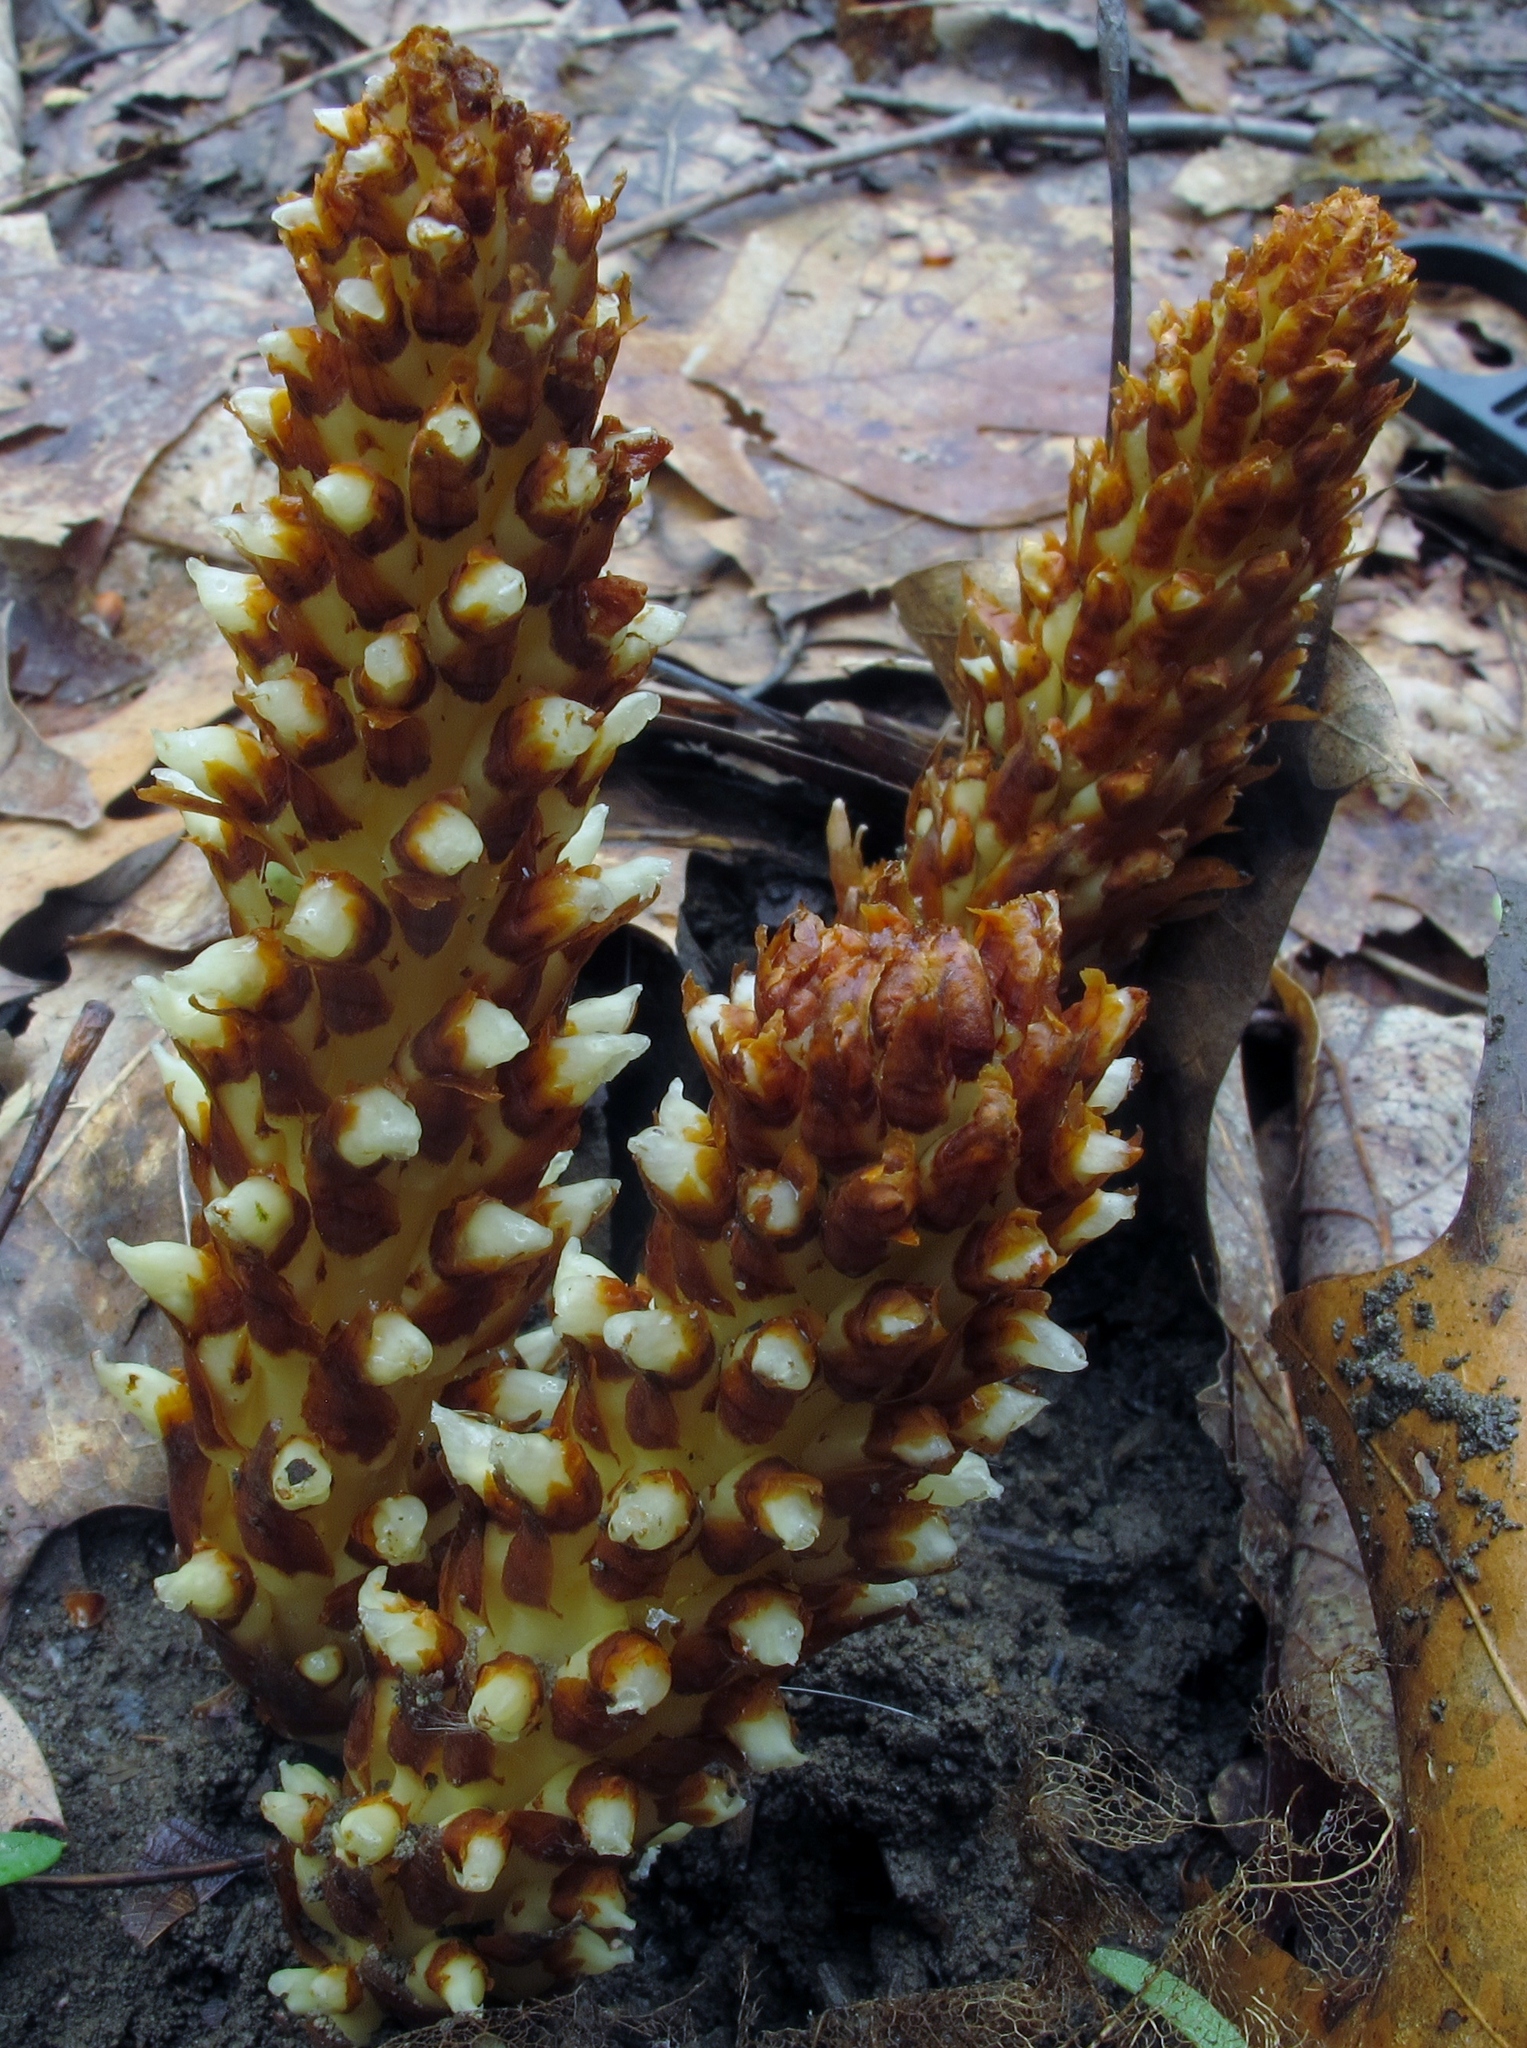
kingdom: Plantae
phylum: Tracheophyta
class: Magnoliopsida
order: Lamiales
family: Orobanchaceae
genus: Conopholis
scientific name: Conopholis americana
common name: American cancer-root
